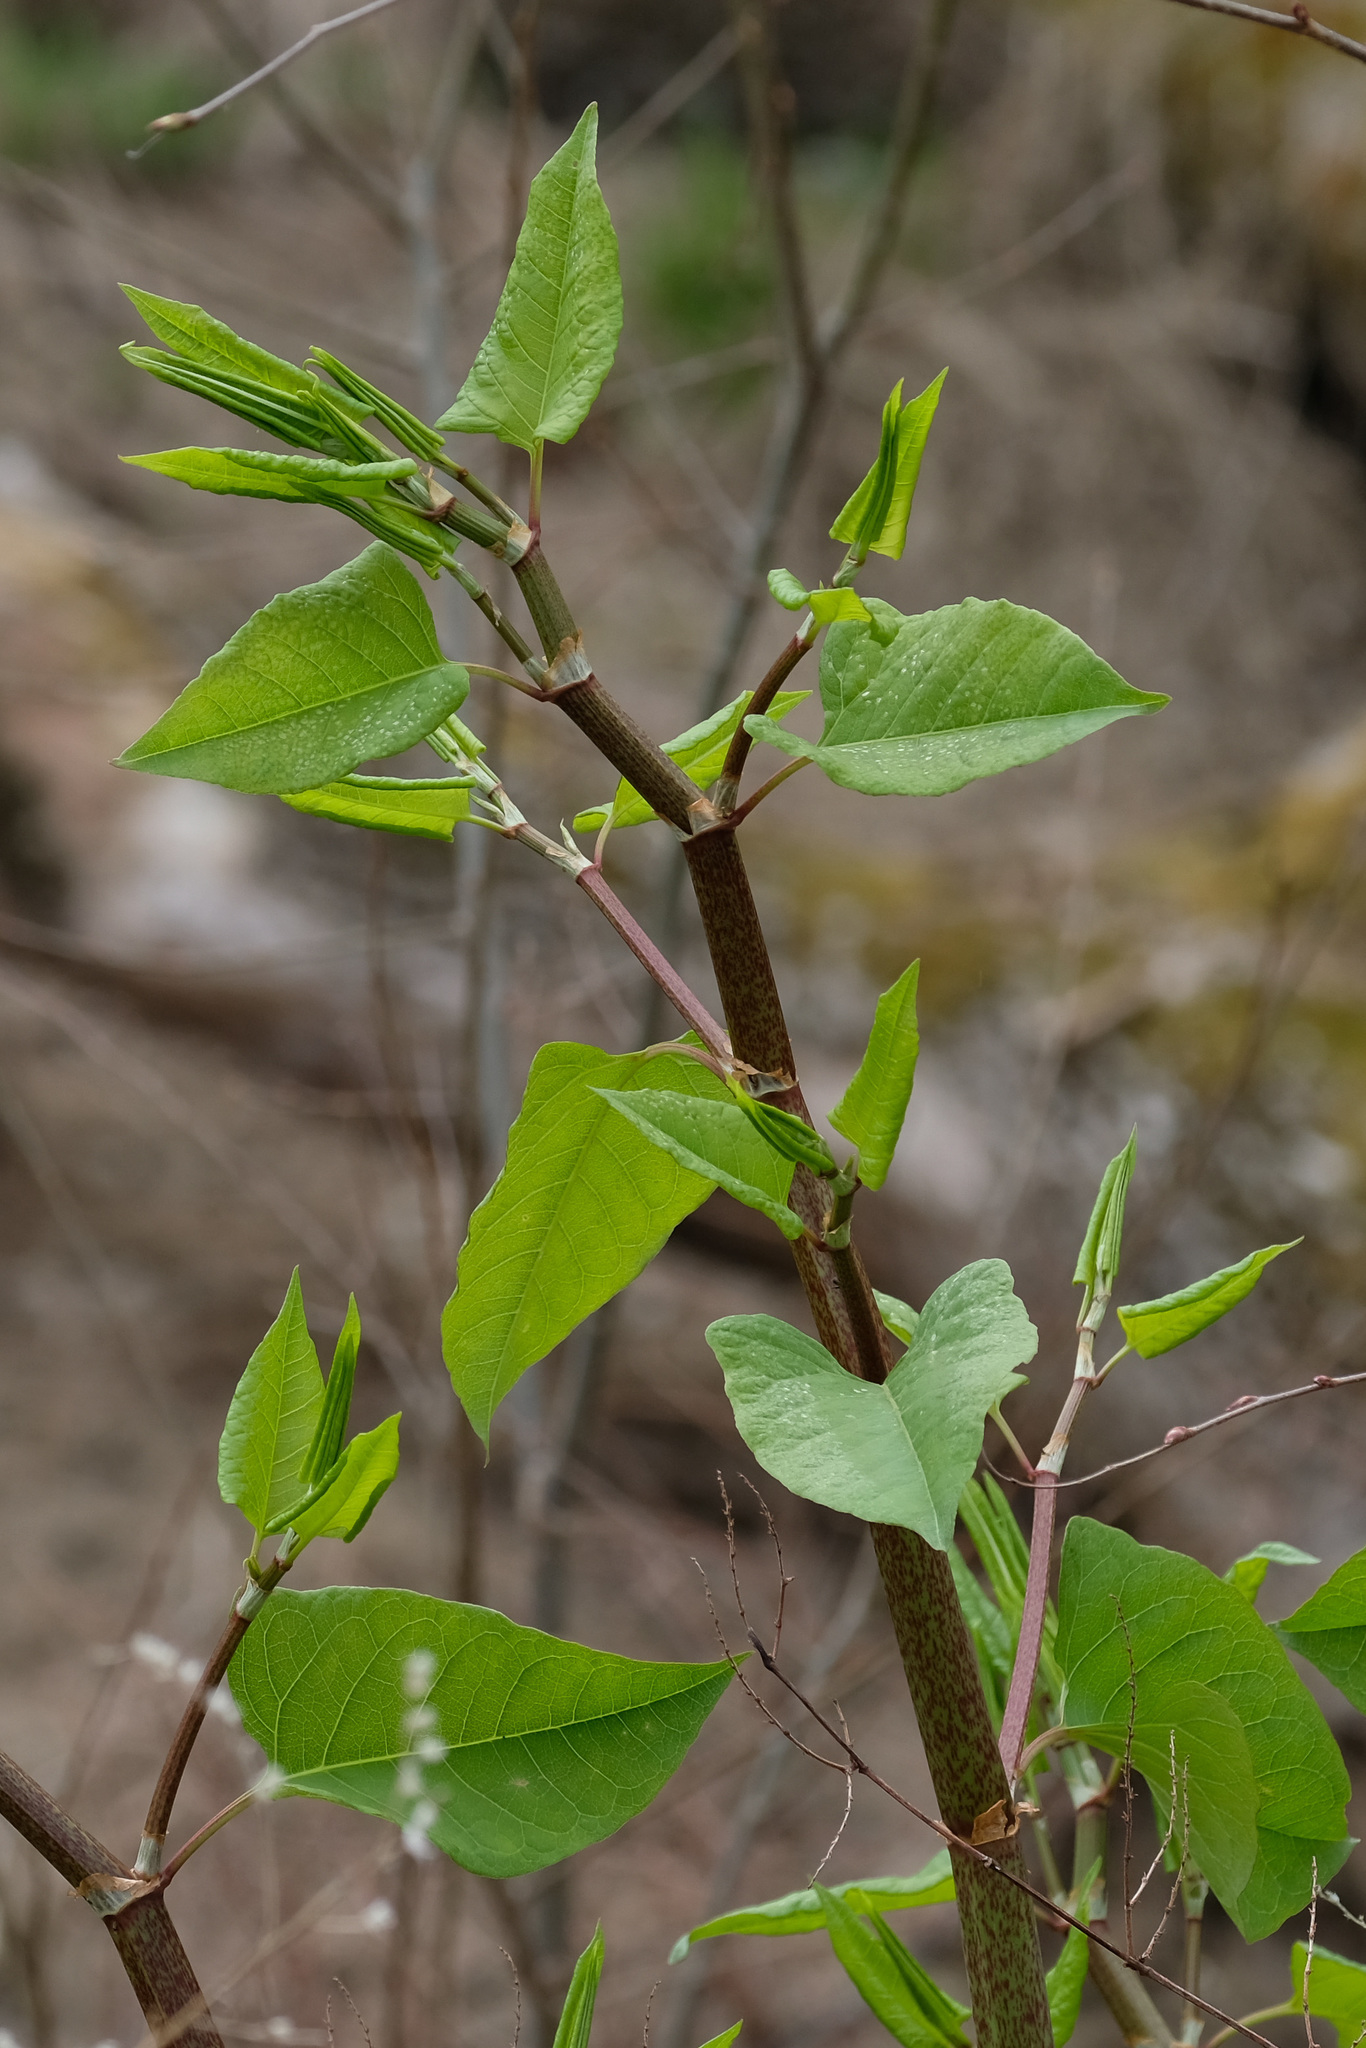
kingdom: Plantae
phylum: Tracheophyta
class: Magnoliopsida
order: Caryophyllales
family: Polygonaceae
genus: Reynoutria
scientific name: Reynoutria japonica
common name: Japanese knotweed
